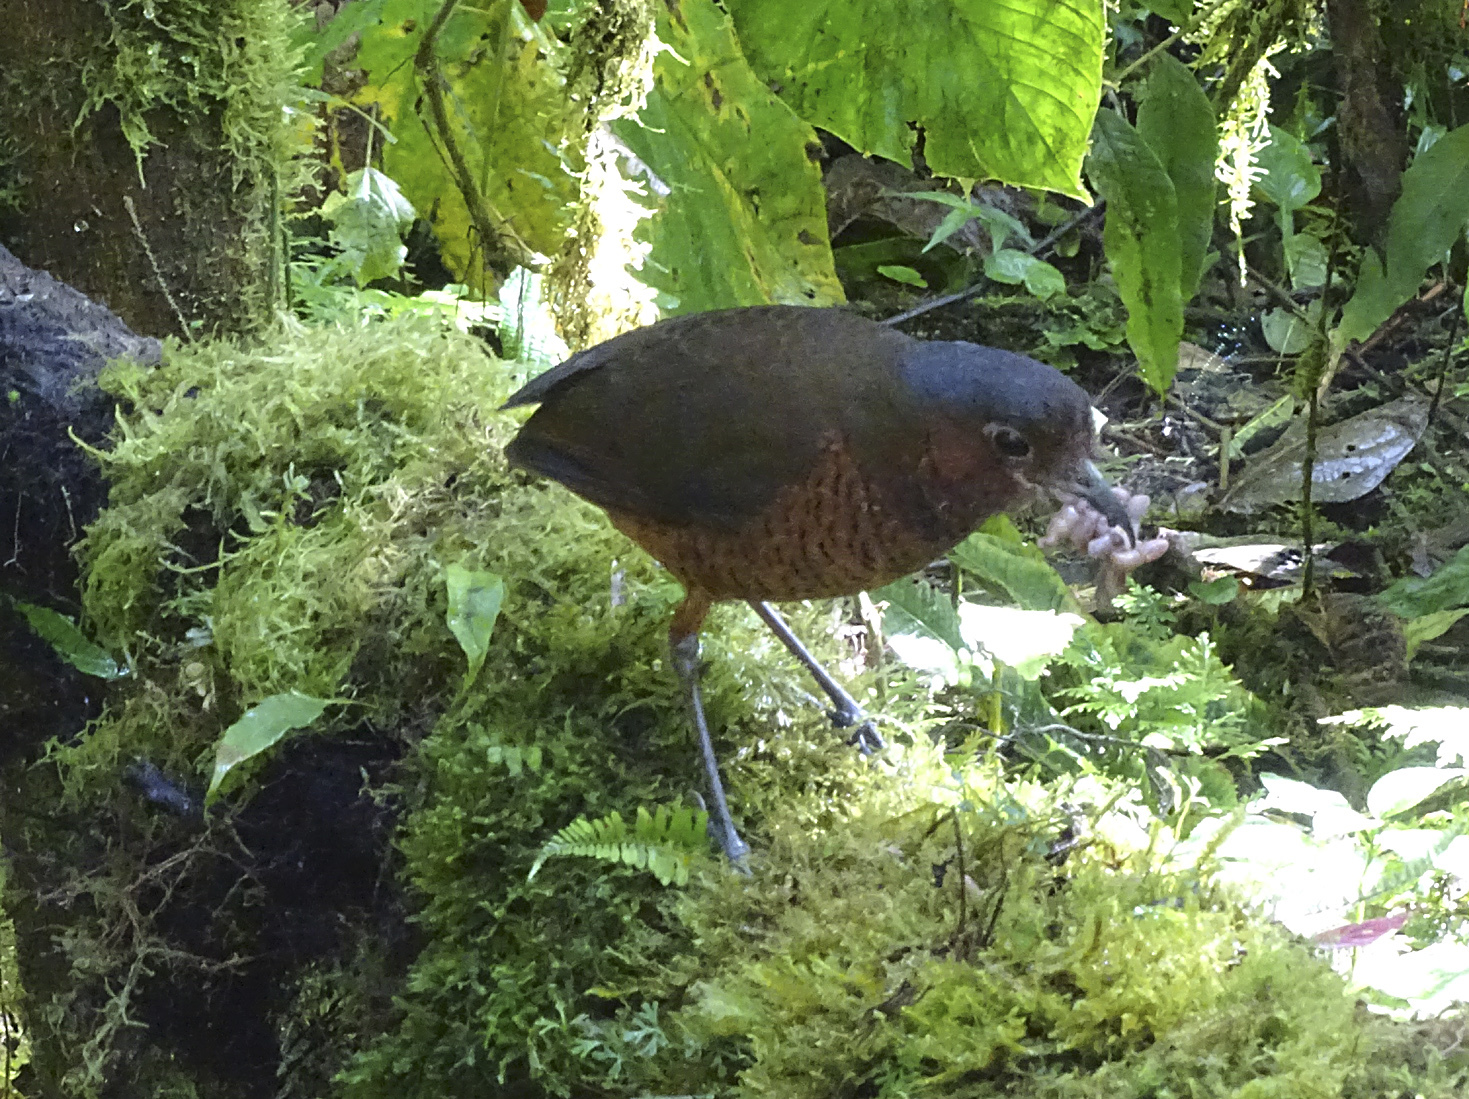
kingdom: Animalia
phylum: Chordata
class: Aves
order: Passeriformes
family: Grallariidae
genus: Grallaria
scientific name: Grallaria gigantea
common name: Giant antpitta
